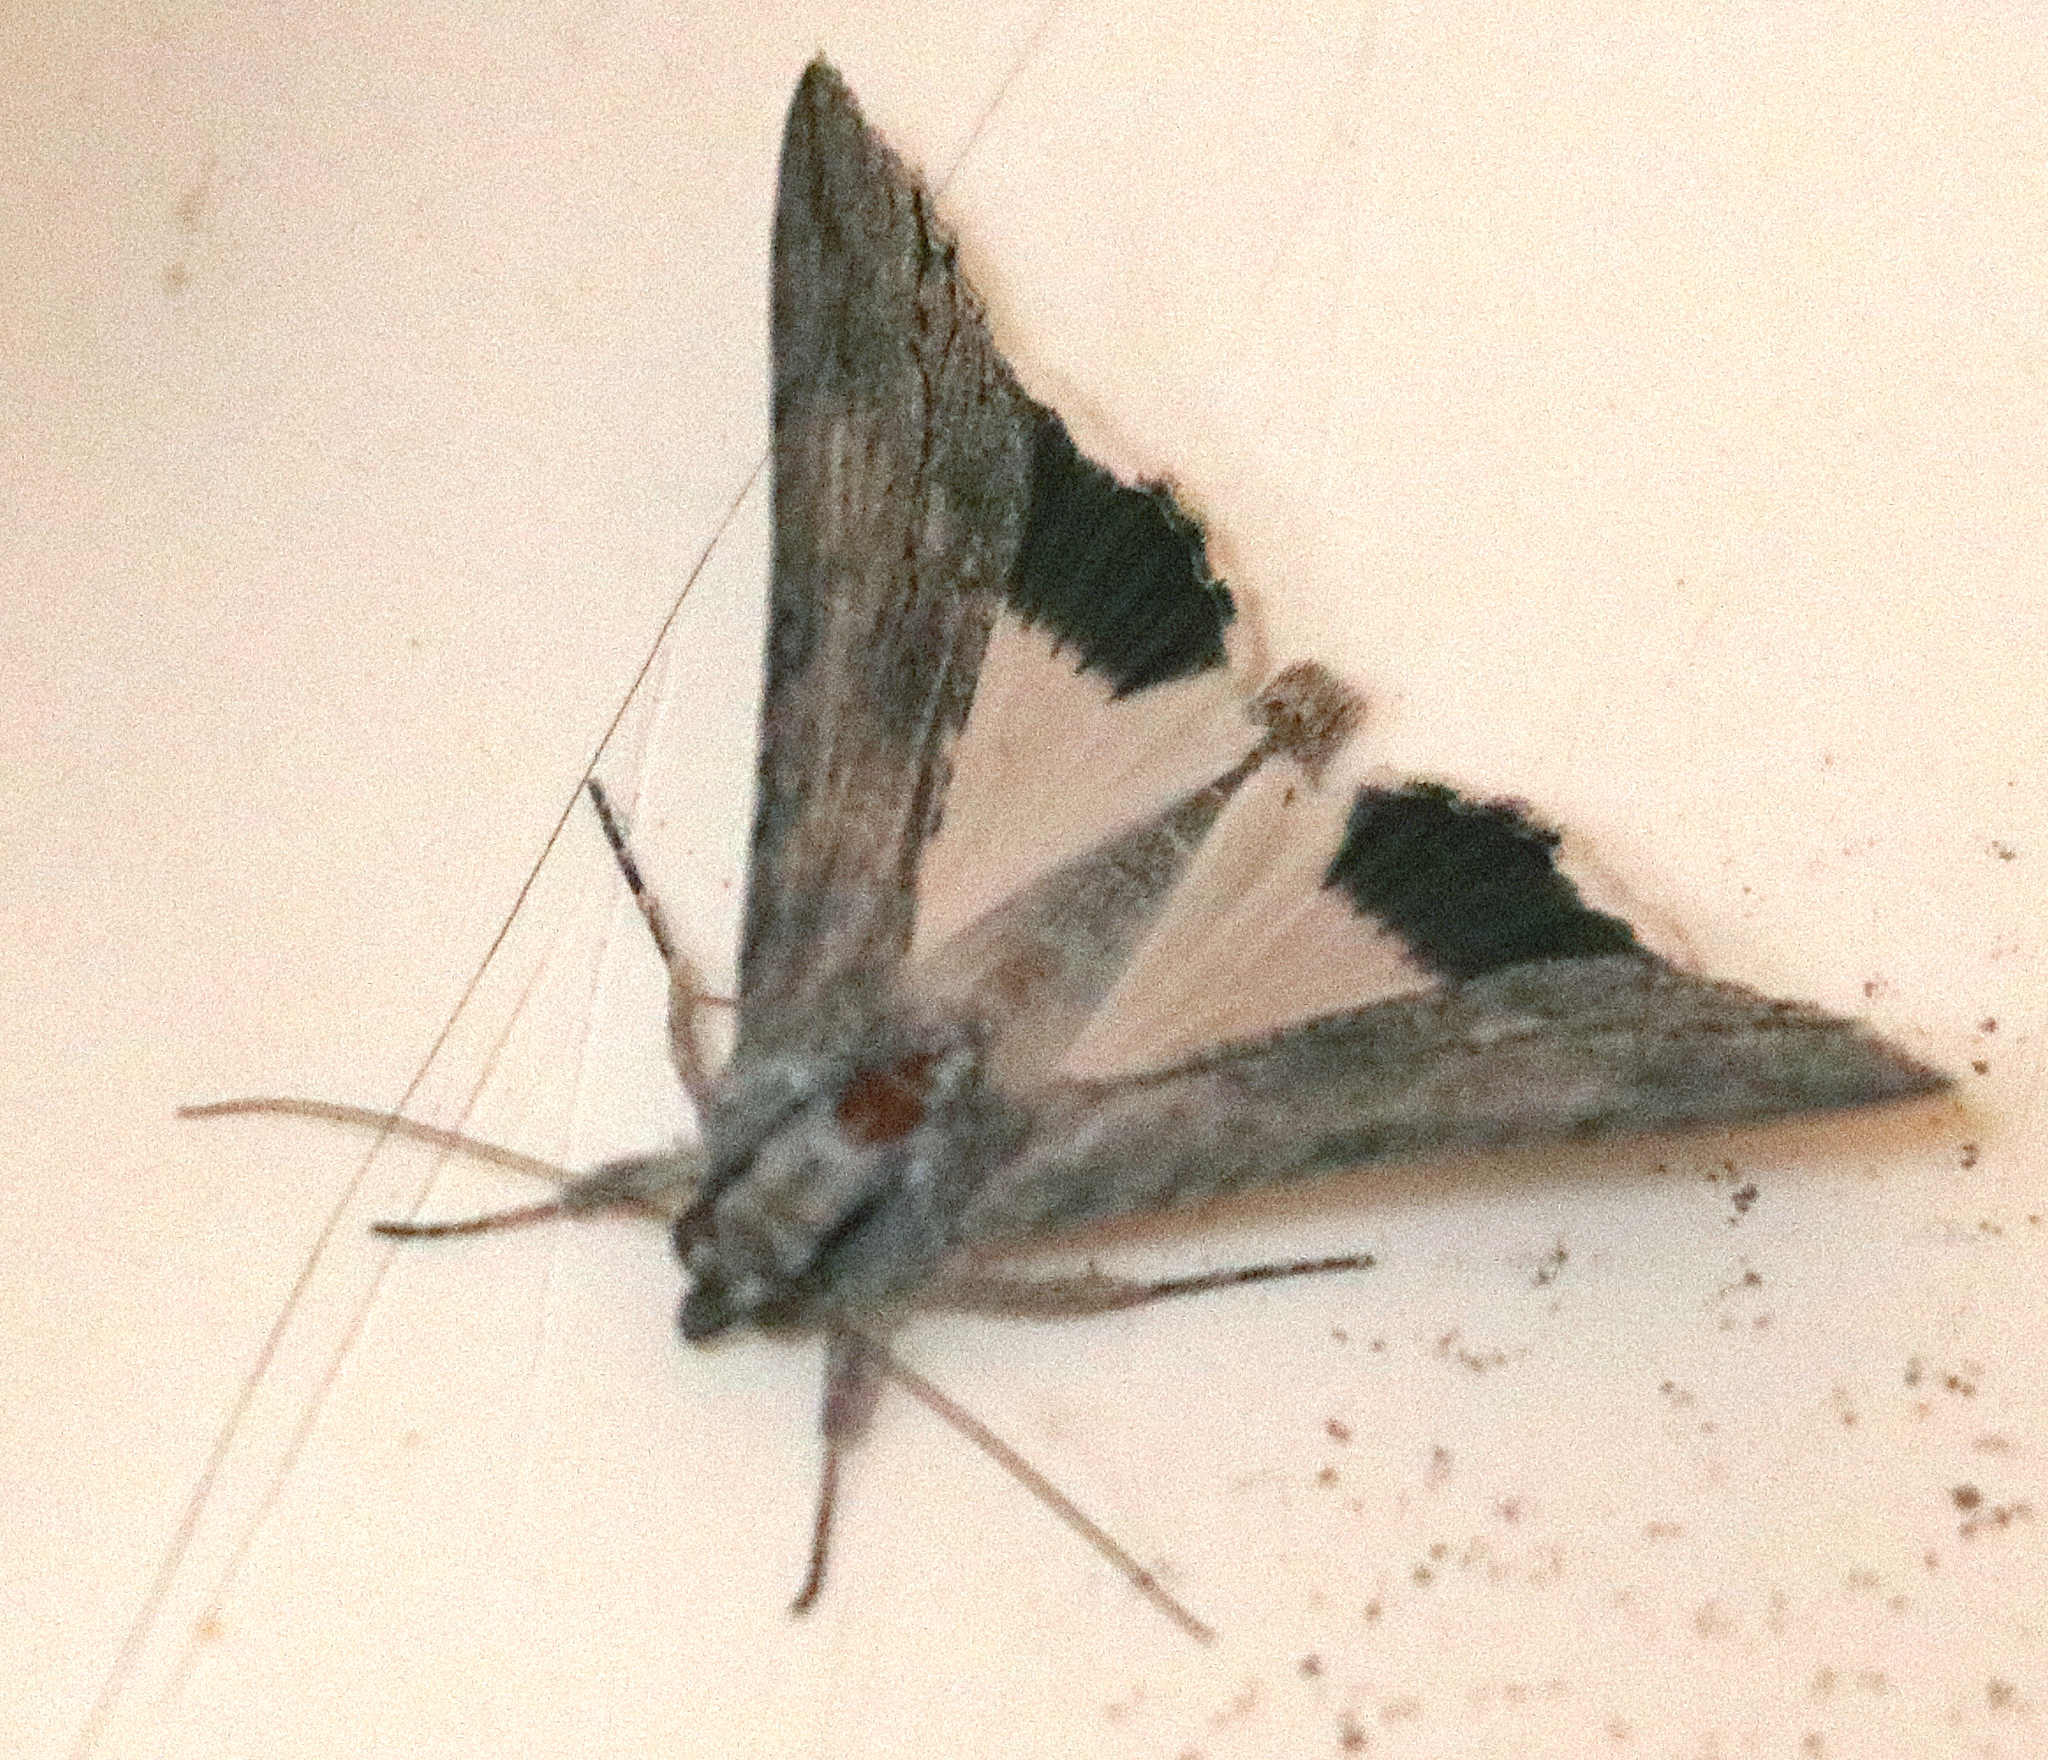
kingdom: Animalia
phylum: Arthropoda
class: Insecta
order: Lepidoptera
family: Erebidae
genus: Melipotis
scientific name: Melipotis acontioides
